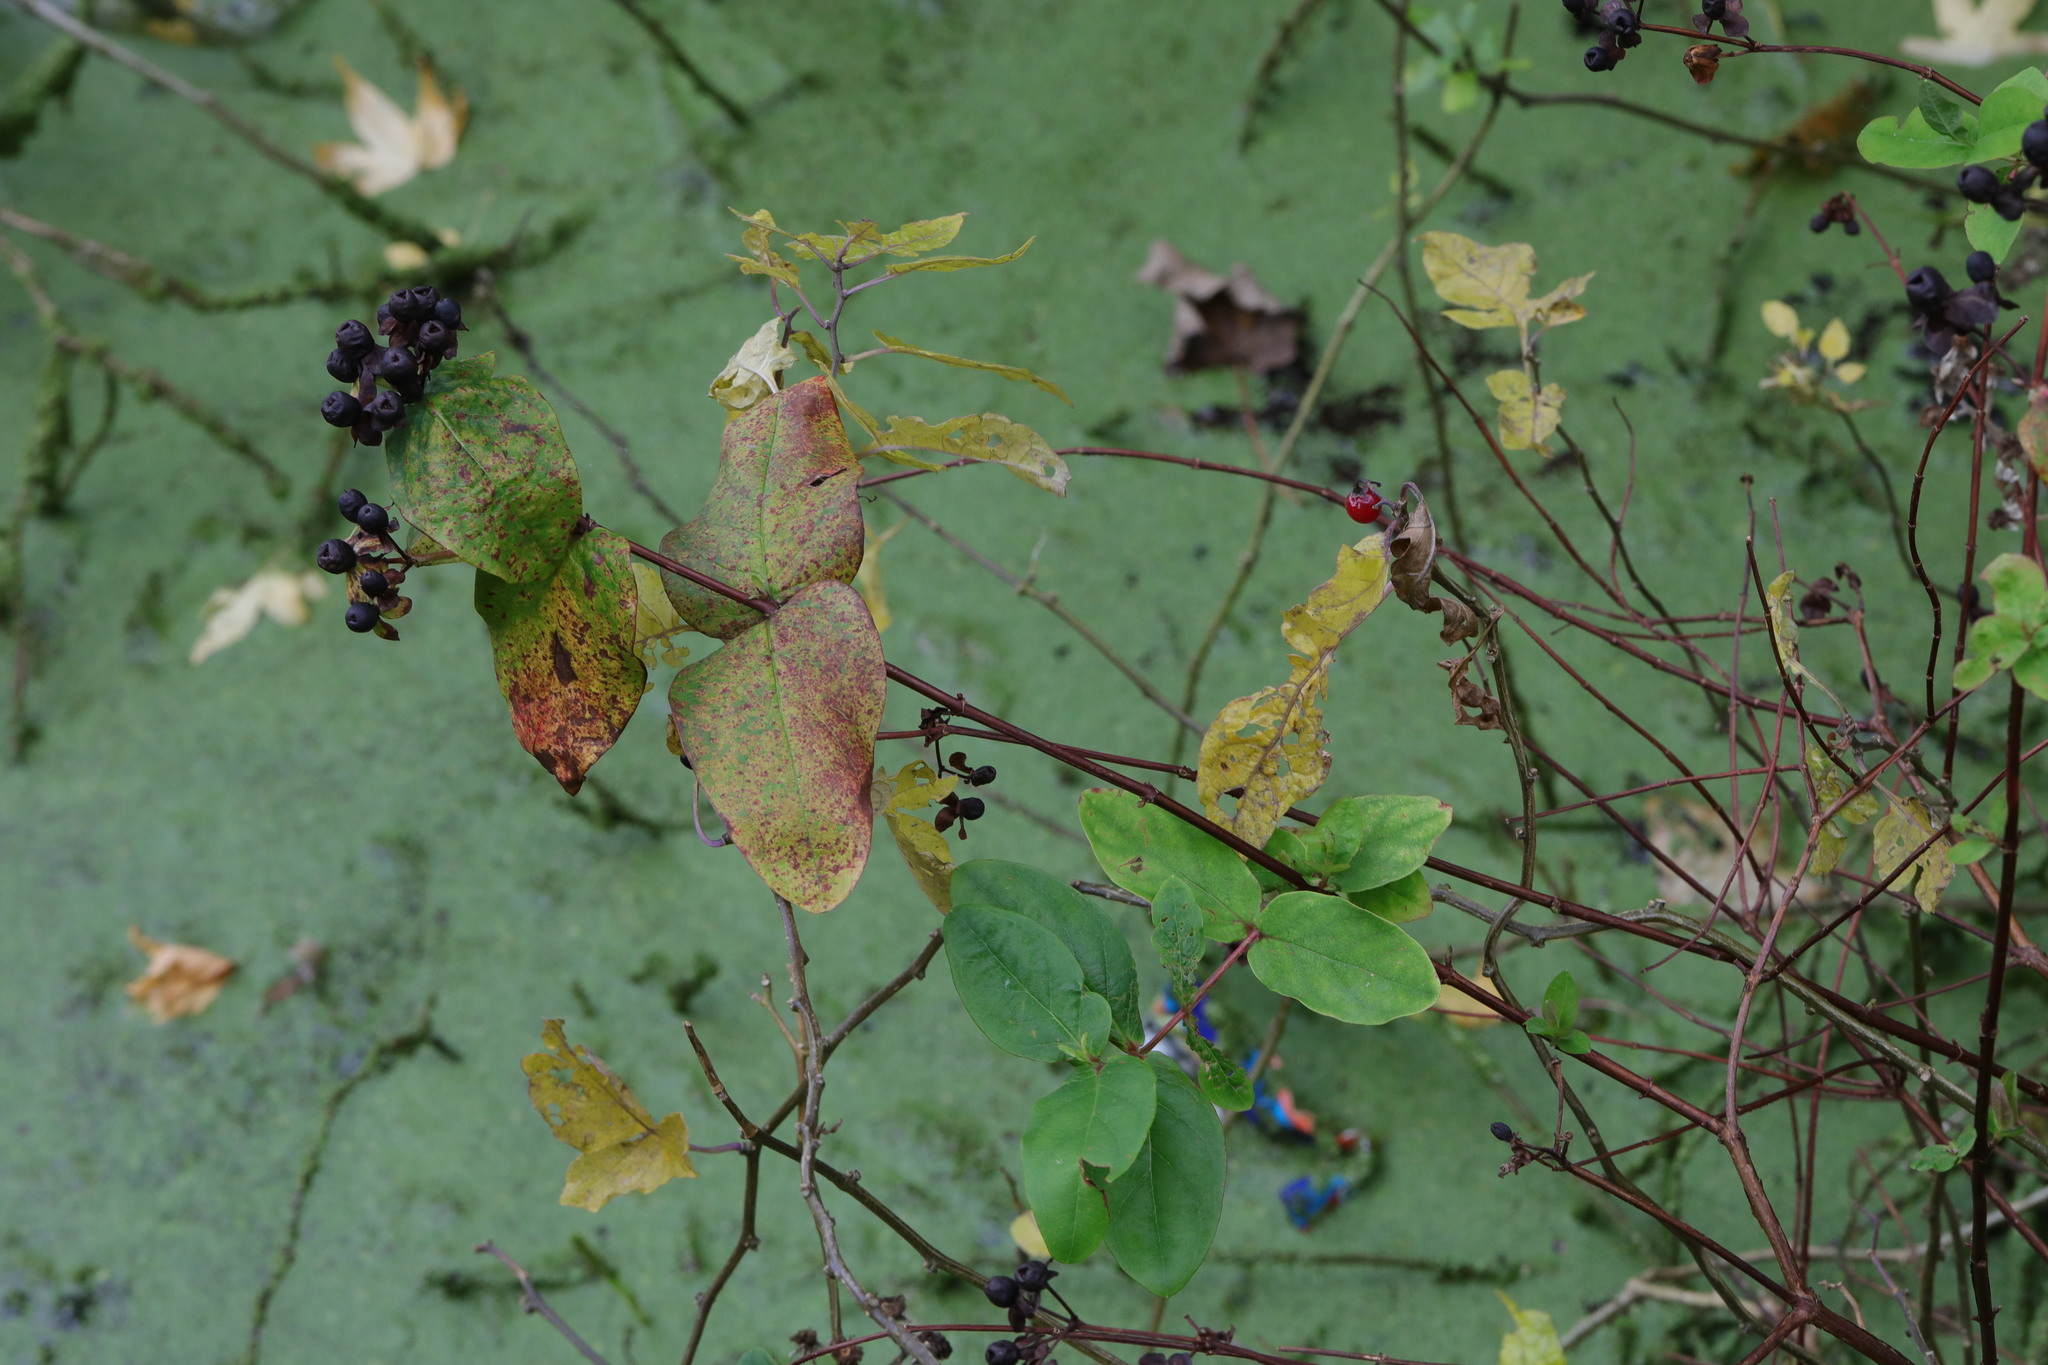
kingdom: Plantae
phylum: Tracheophyta
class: Magnoliopsida
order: Malpighiales
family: Hypericaceae
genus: Hypericum
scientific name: Hypericum androsaemum
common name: Sweet-amber
